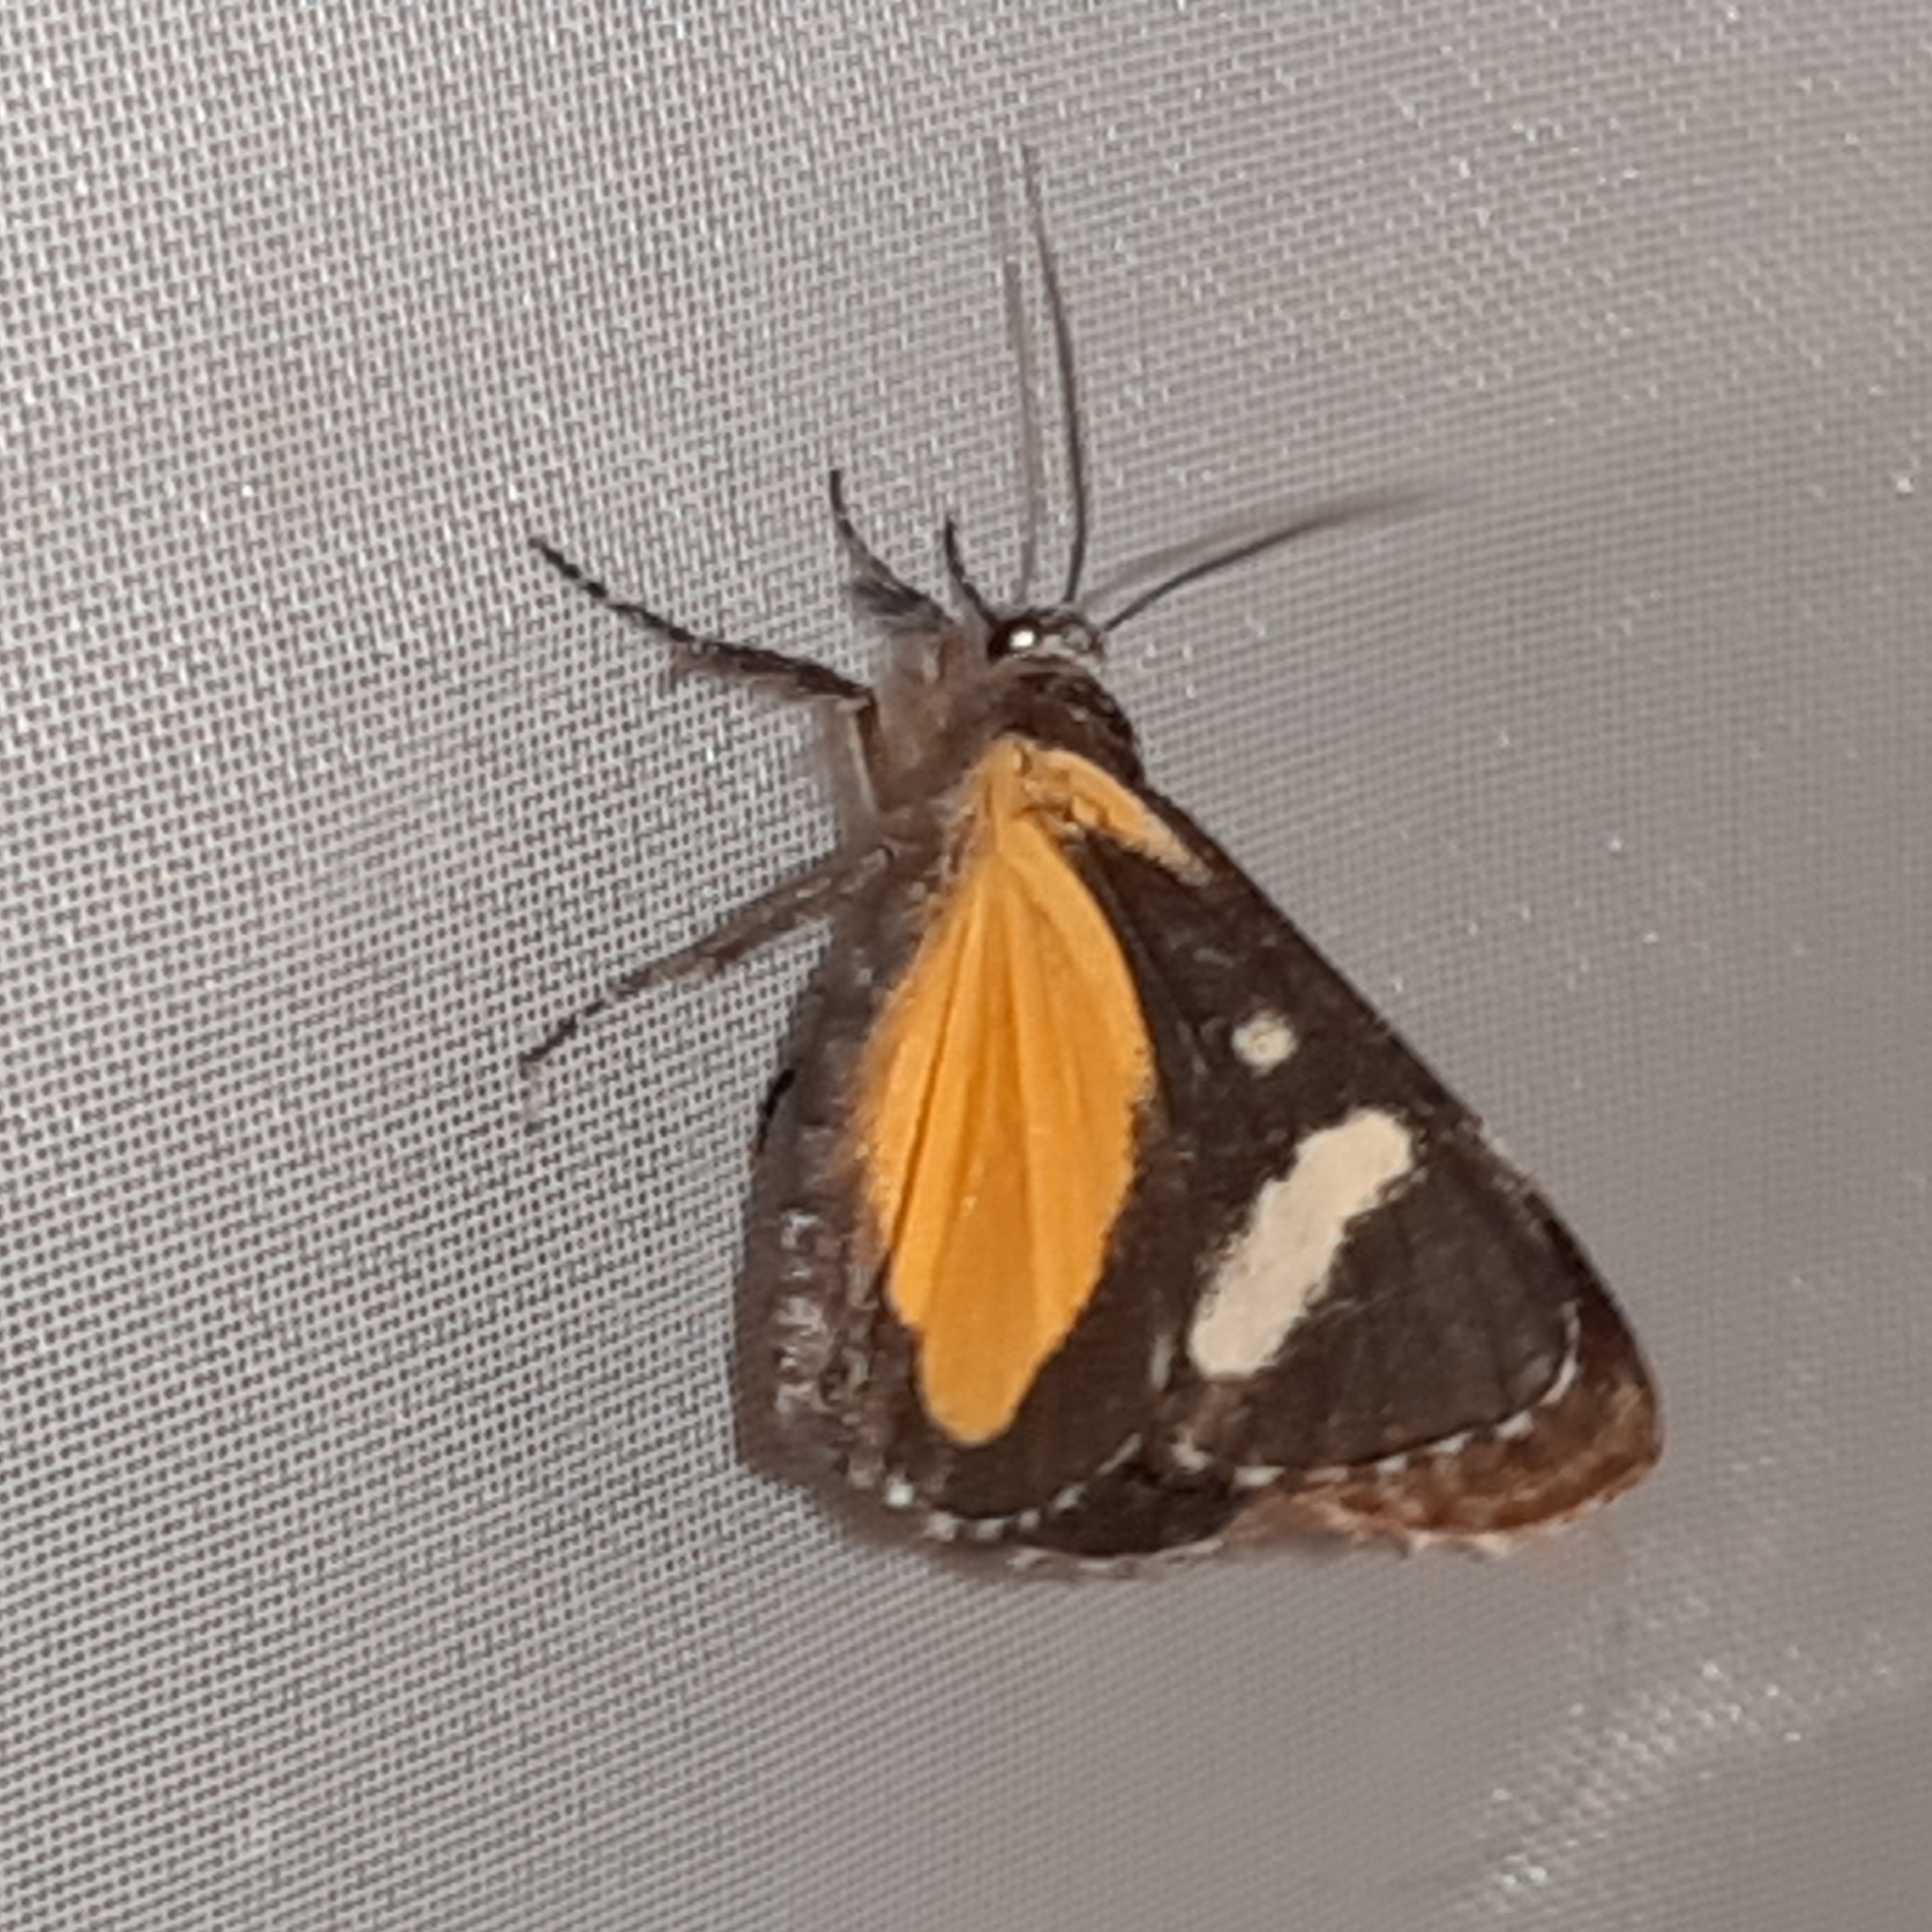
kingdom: Animalia
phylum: Arthropoda
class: Insecta
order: Lepidoptera
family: Noctuidae
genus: Gerra
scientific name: Gerra aelia
